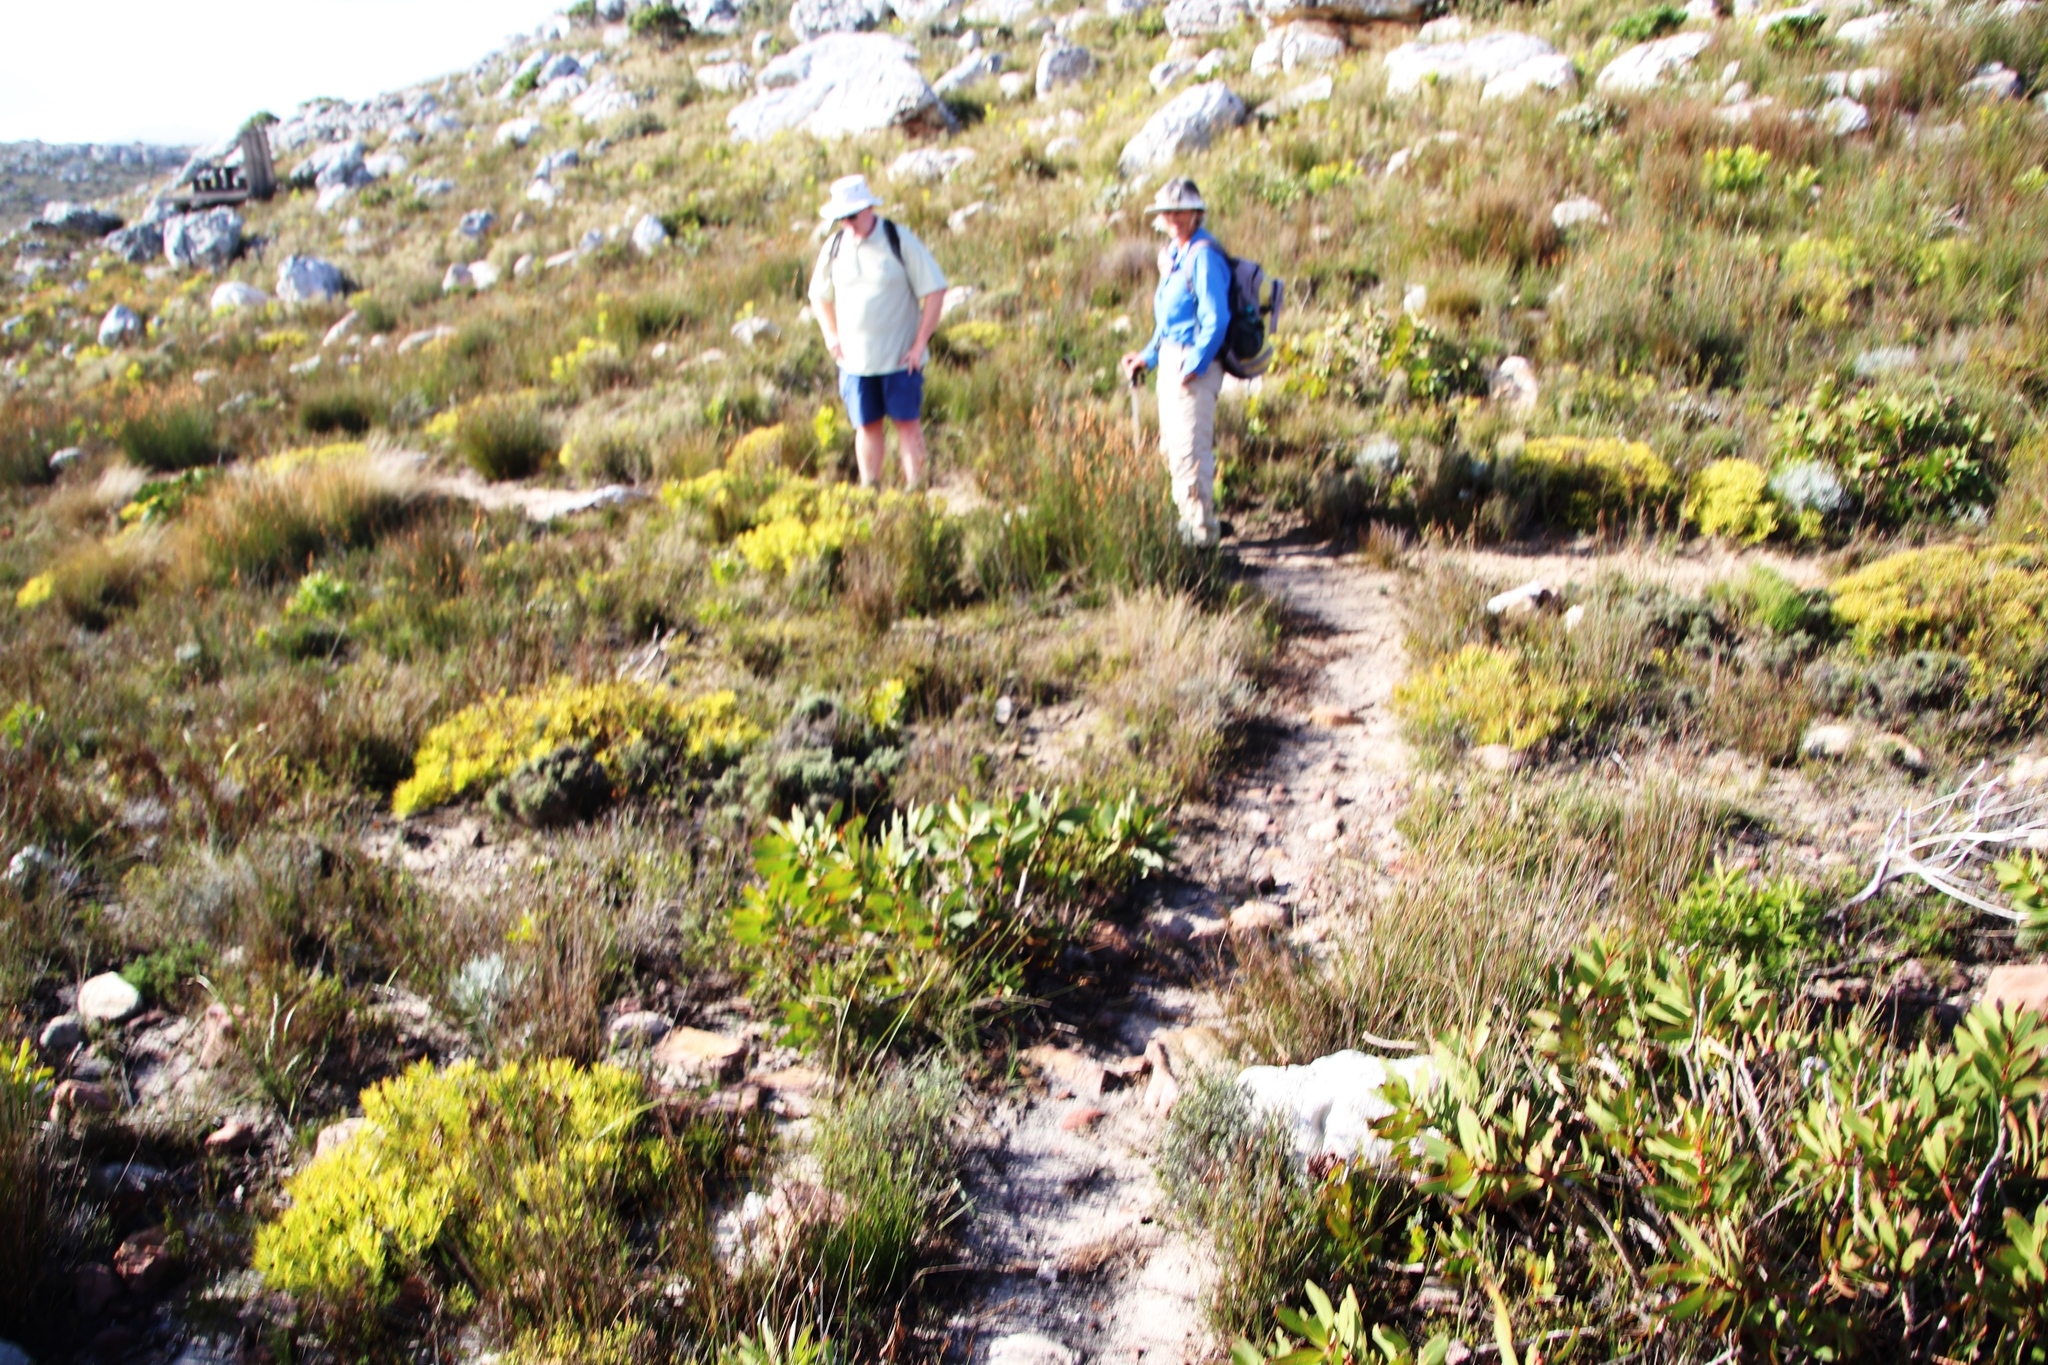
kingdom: Plantae
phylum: Tracheophyta
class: Magnoliopsida
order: Proteales
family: Proteaceae
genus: Protea
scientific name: Protea nitida
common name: Tree protea
